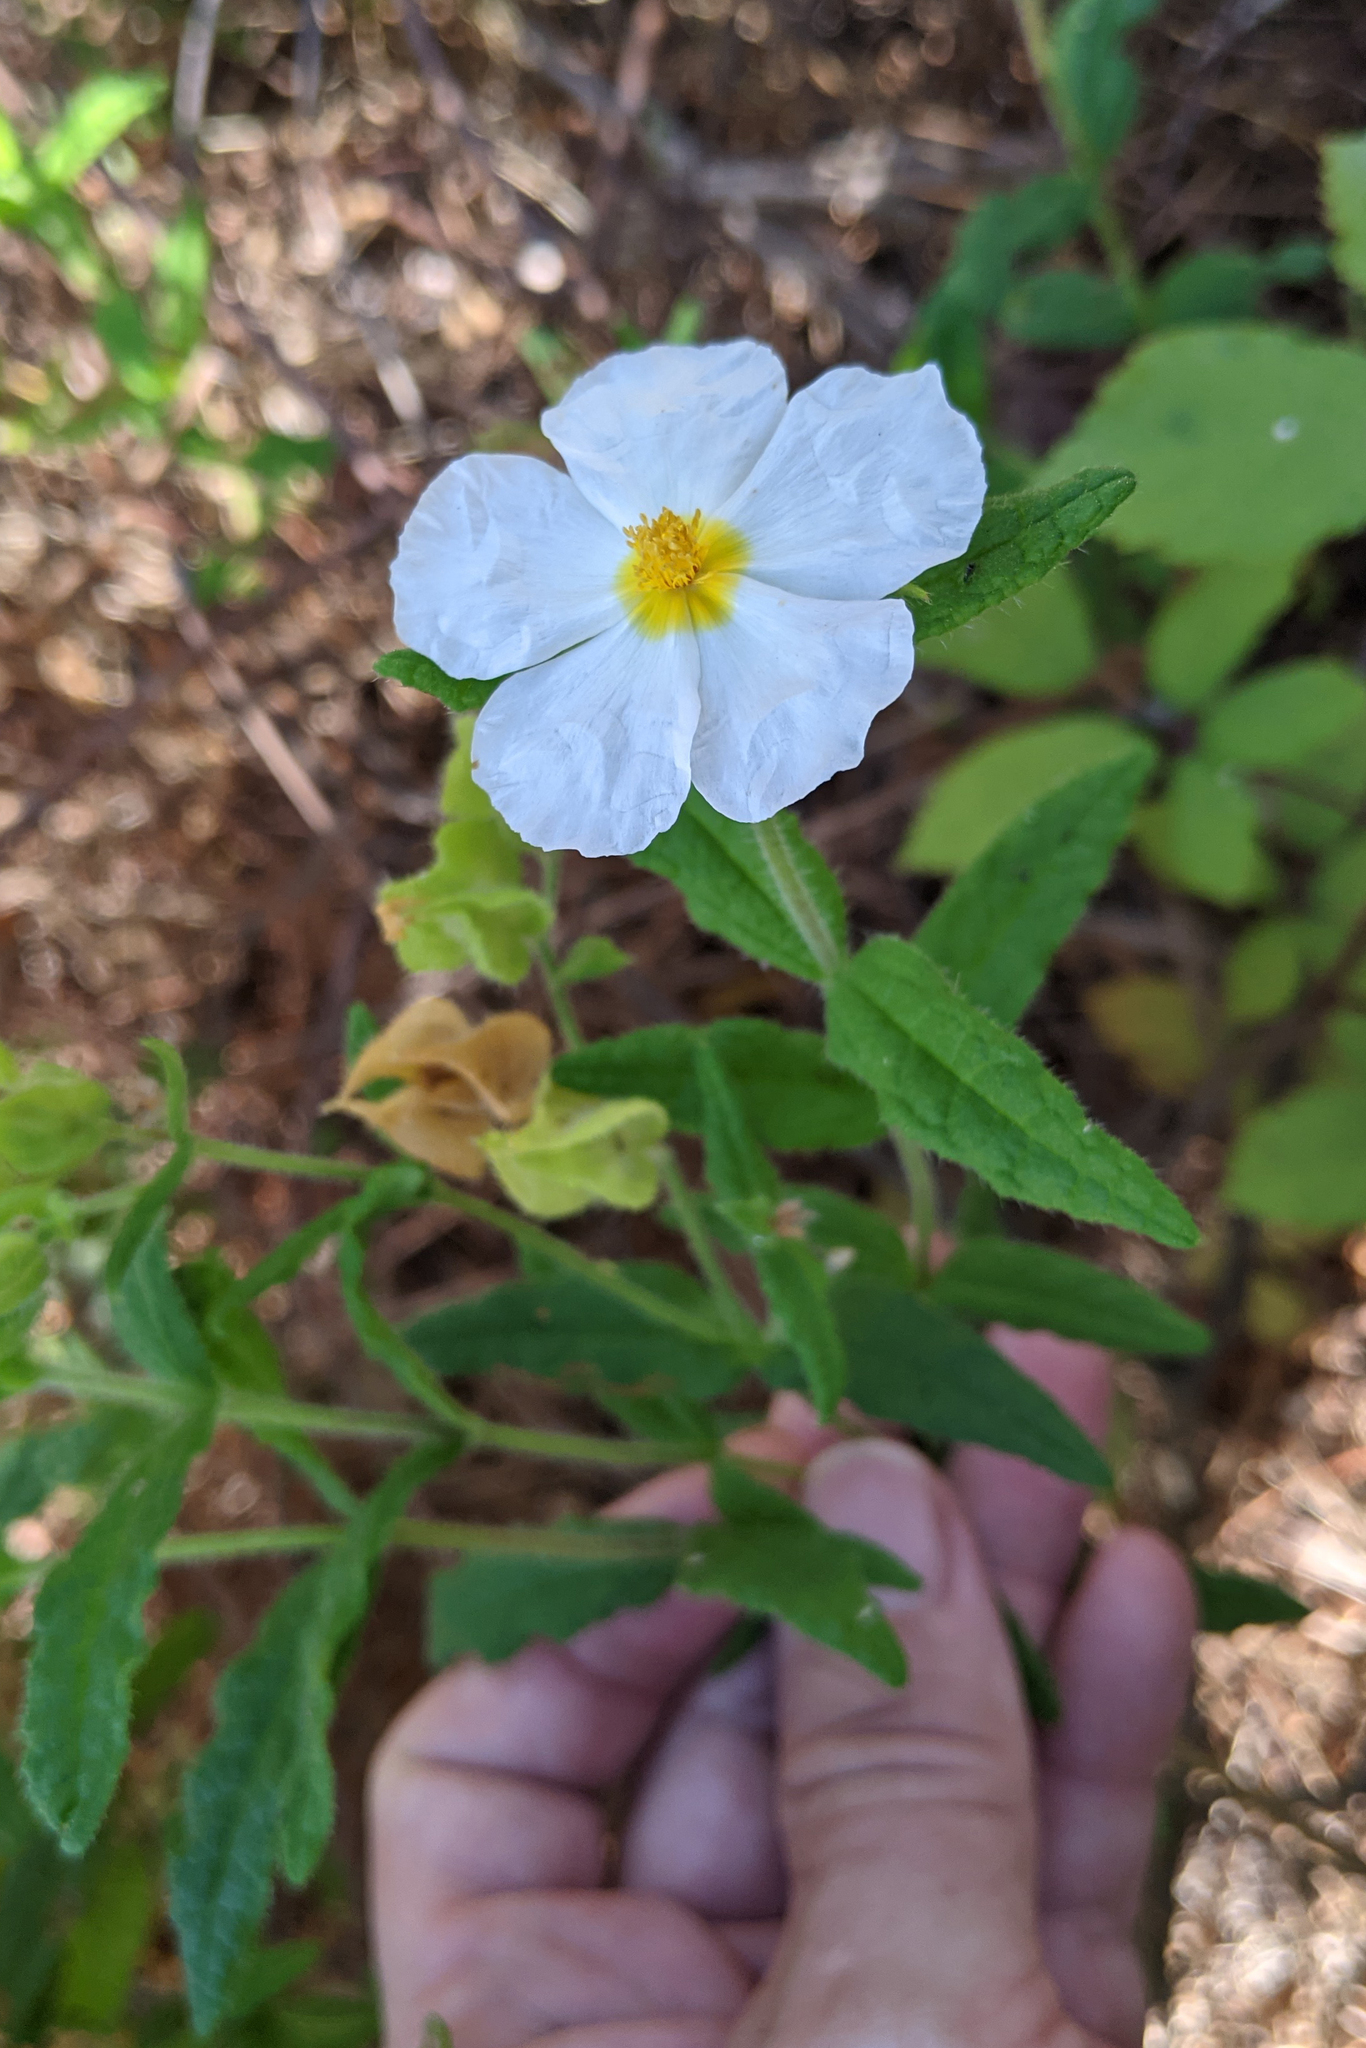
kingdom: Plantae
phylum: Tracheophyta
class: Magnoliopsida
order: Malvales
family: Cistaceae
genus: Cistus
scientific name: Cistus inflatus
